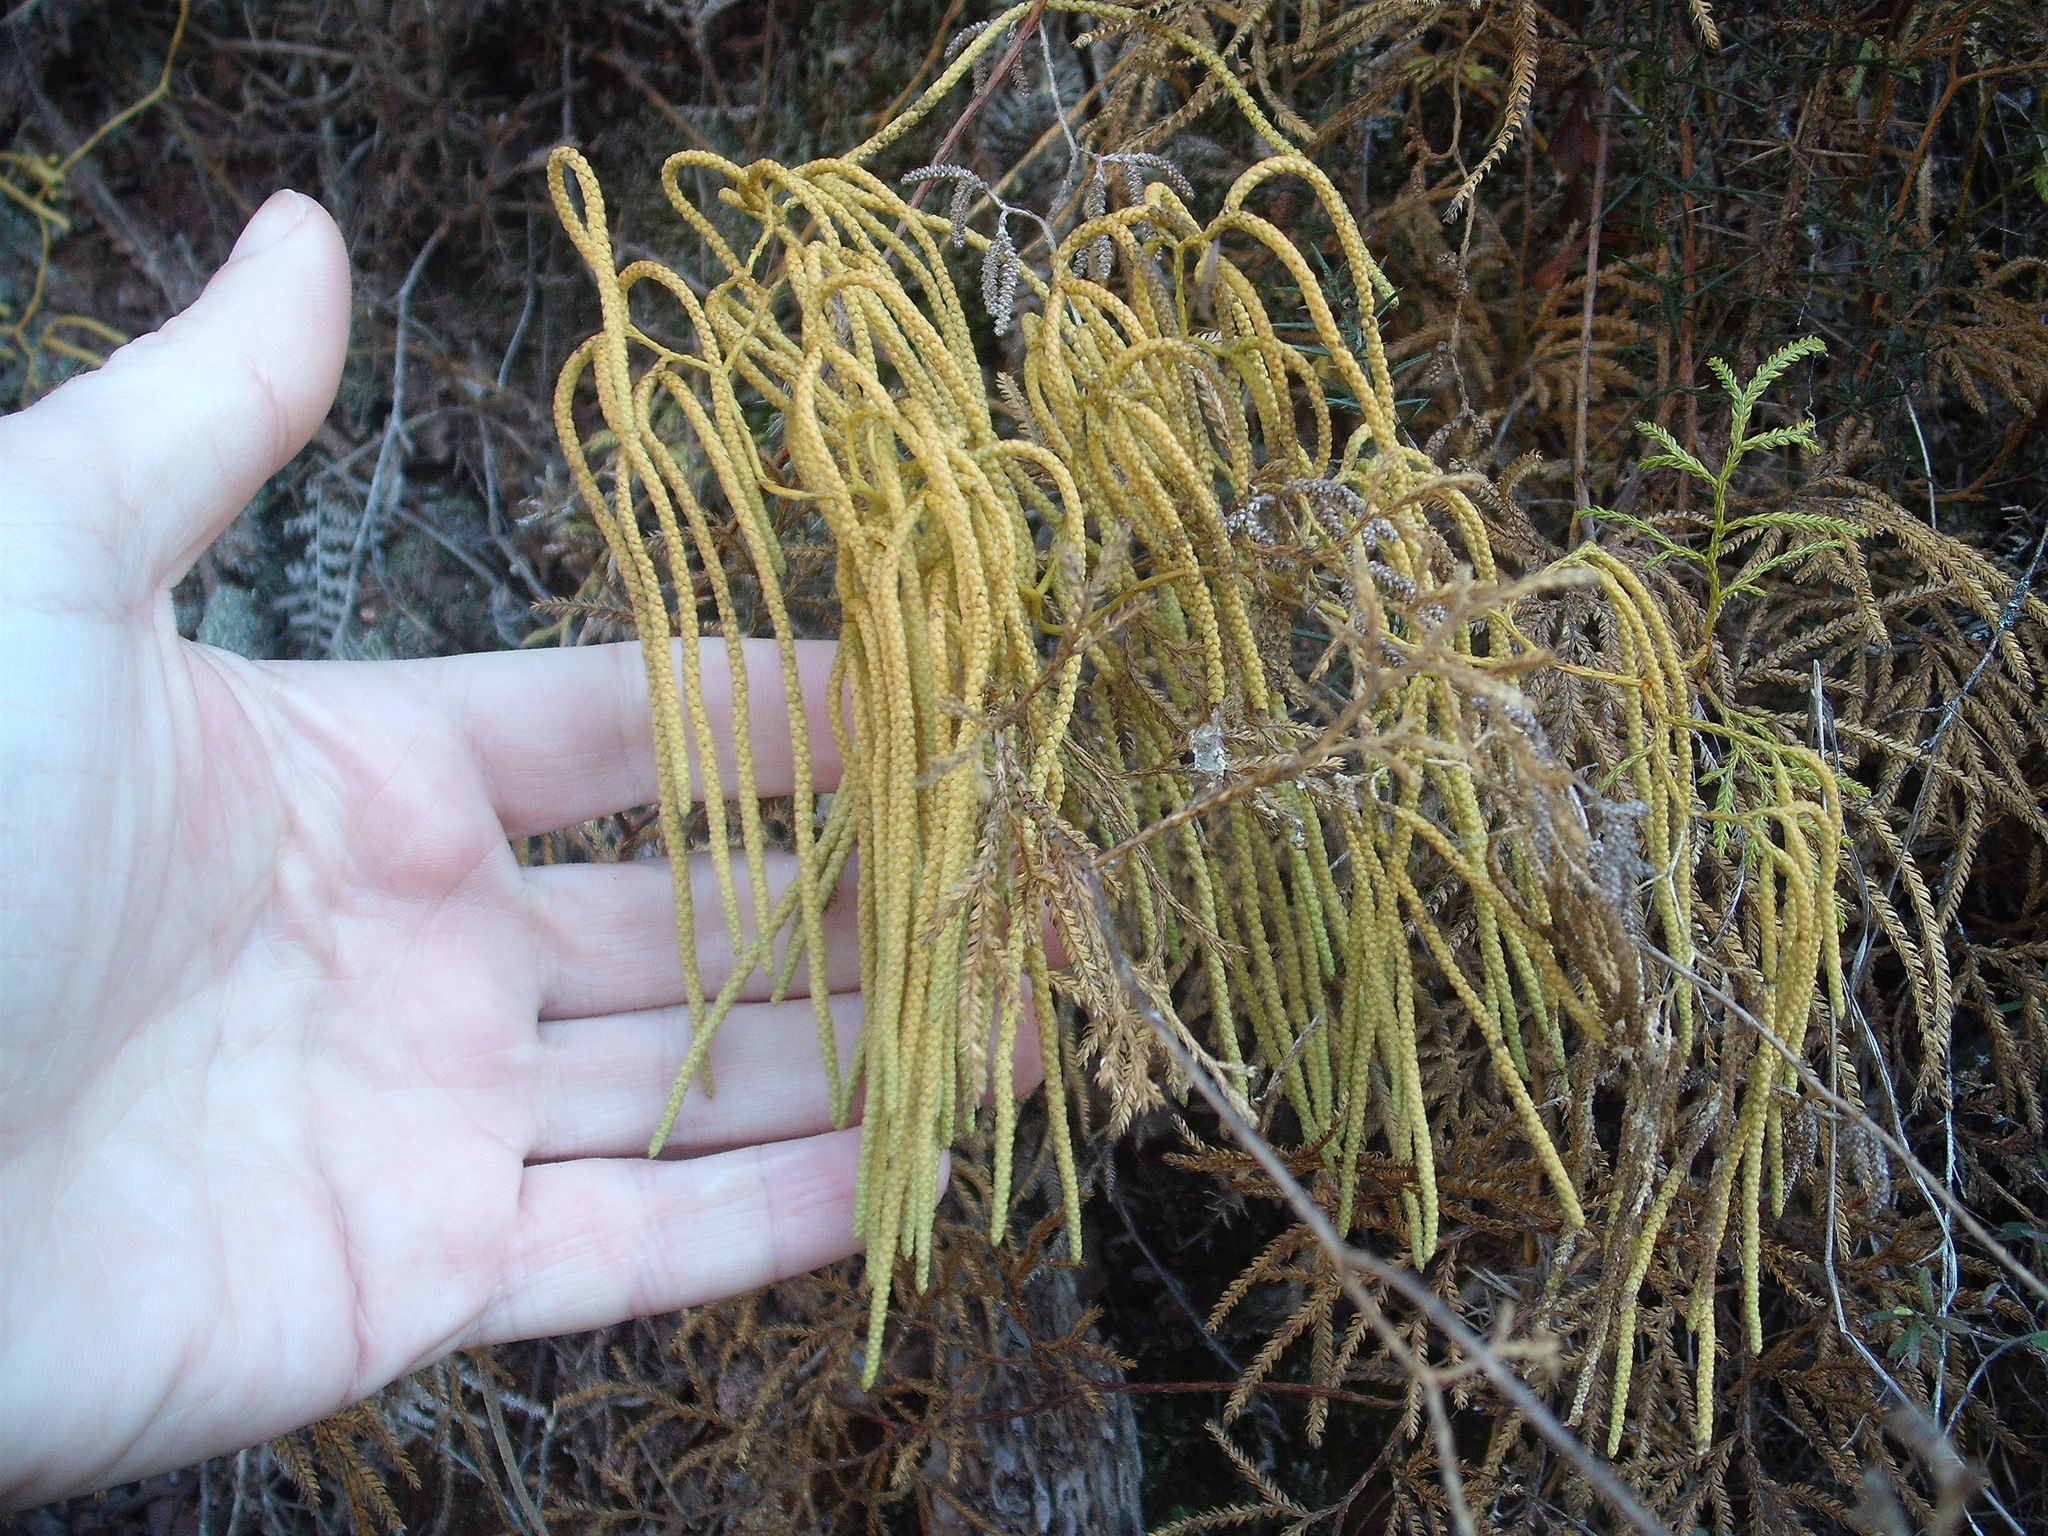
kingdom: Plantae
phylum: Tracheophyta
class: Lycopodiopsida
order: Lycopodiales
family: Lycopodiaceae
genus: Lycopodium
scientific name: Lycopodium volubile
